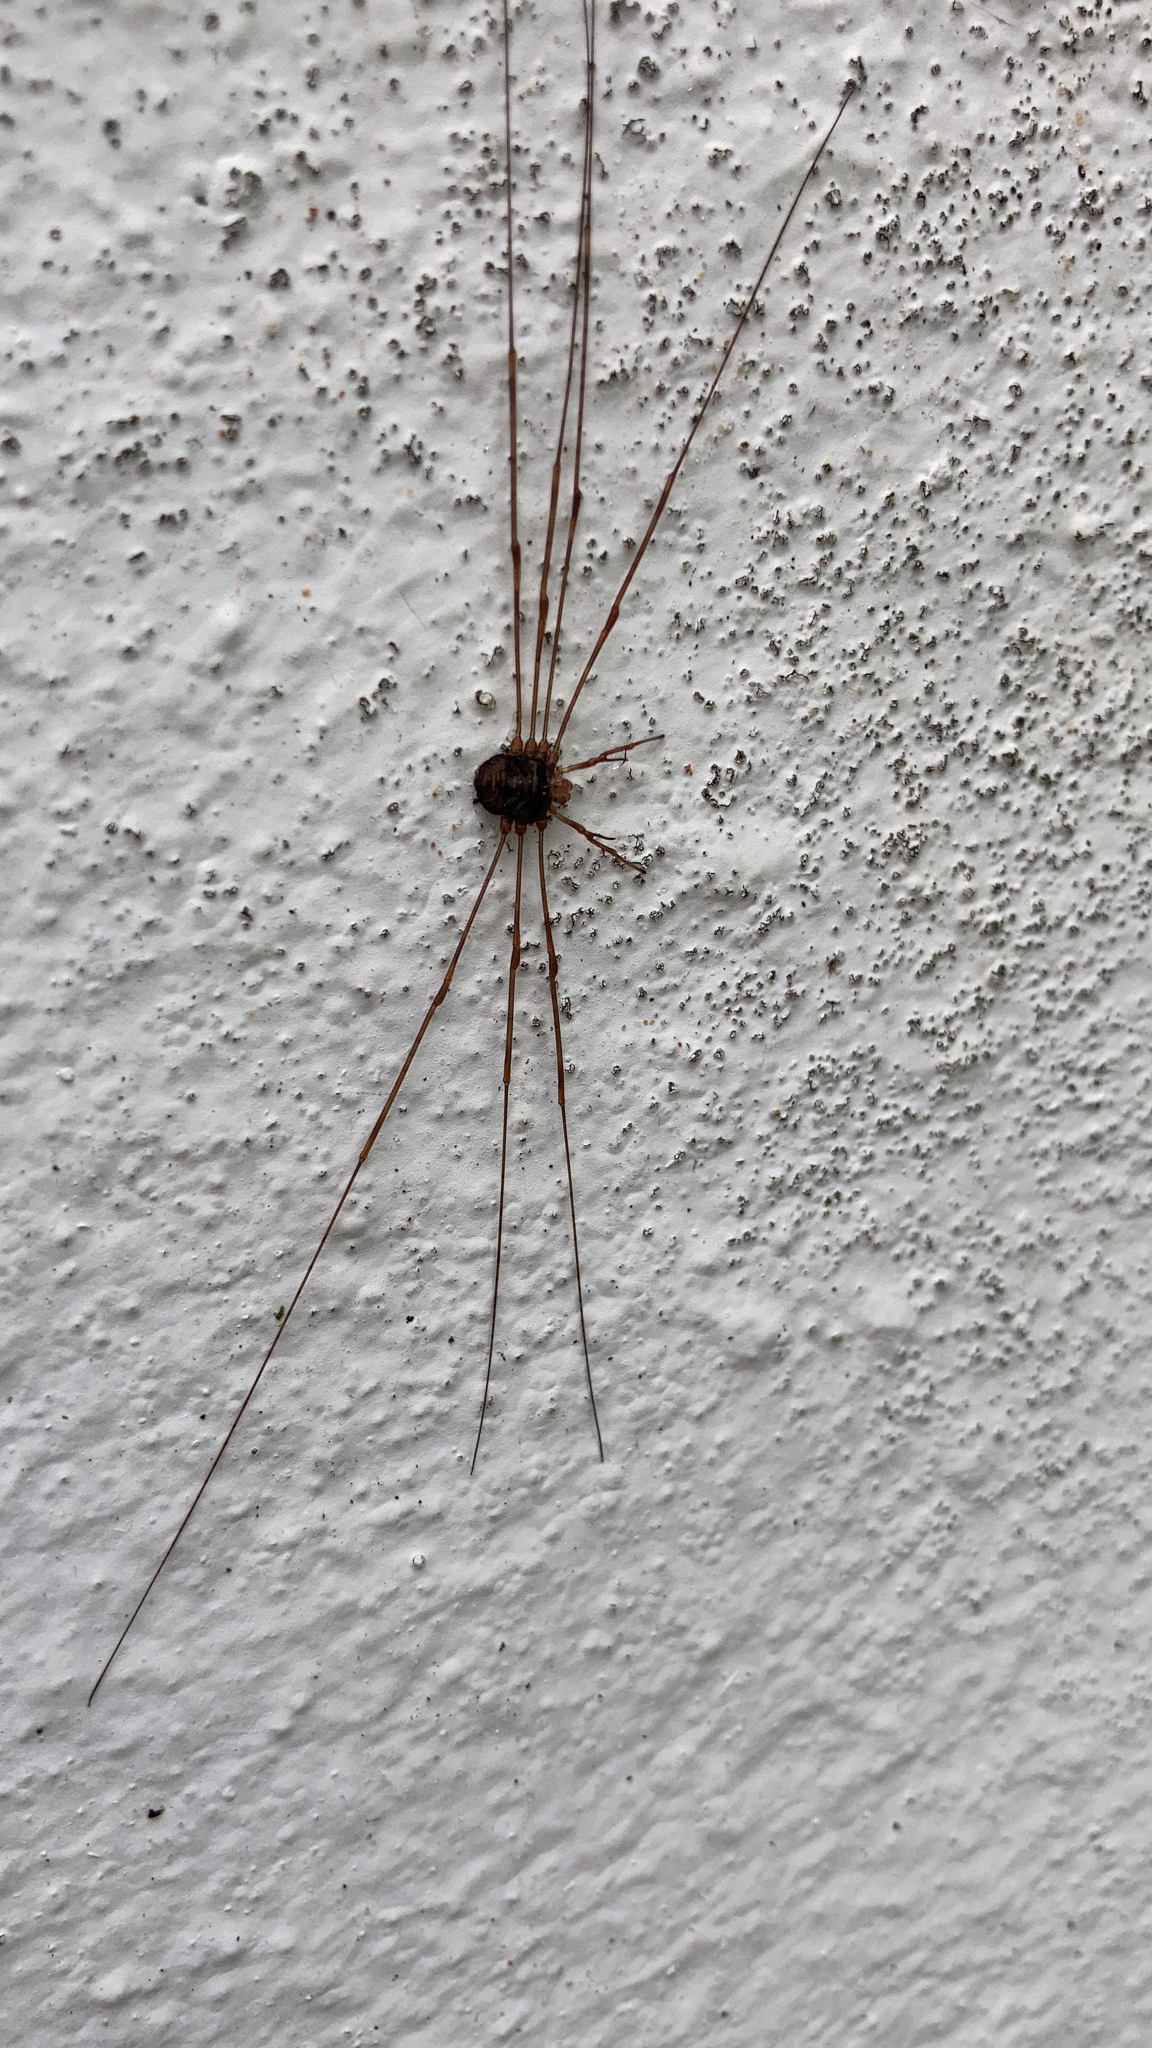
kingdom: Animalia
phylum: Arthropoda
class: Arachnida
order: Opiliones
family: Phalangiidae
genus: Dicranopalpus
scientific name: Dicranopalpus ramosus
